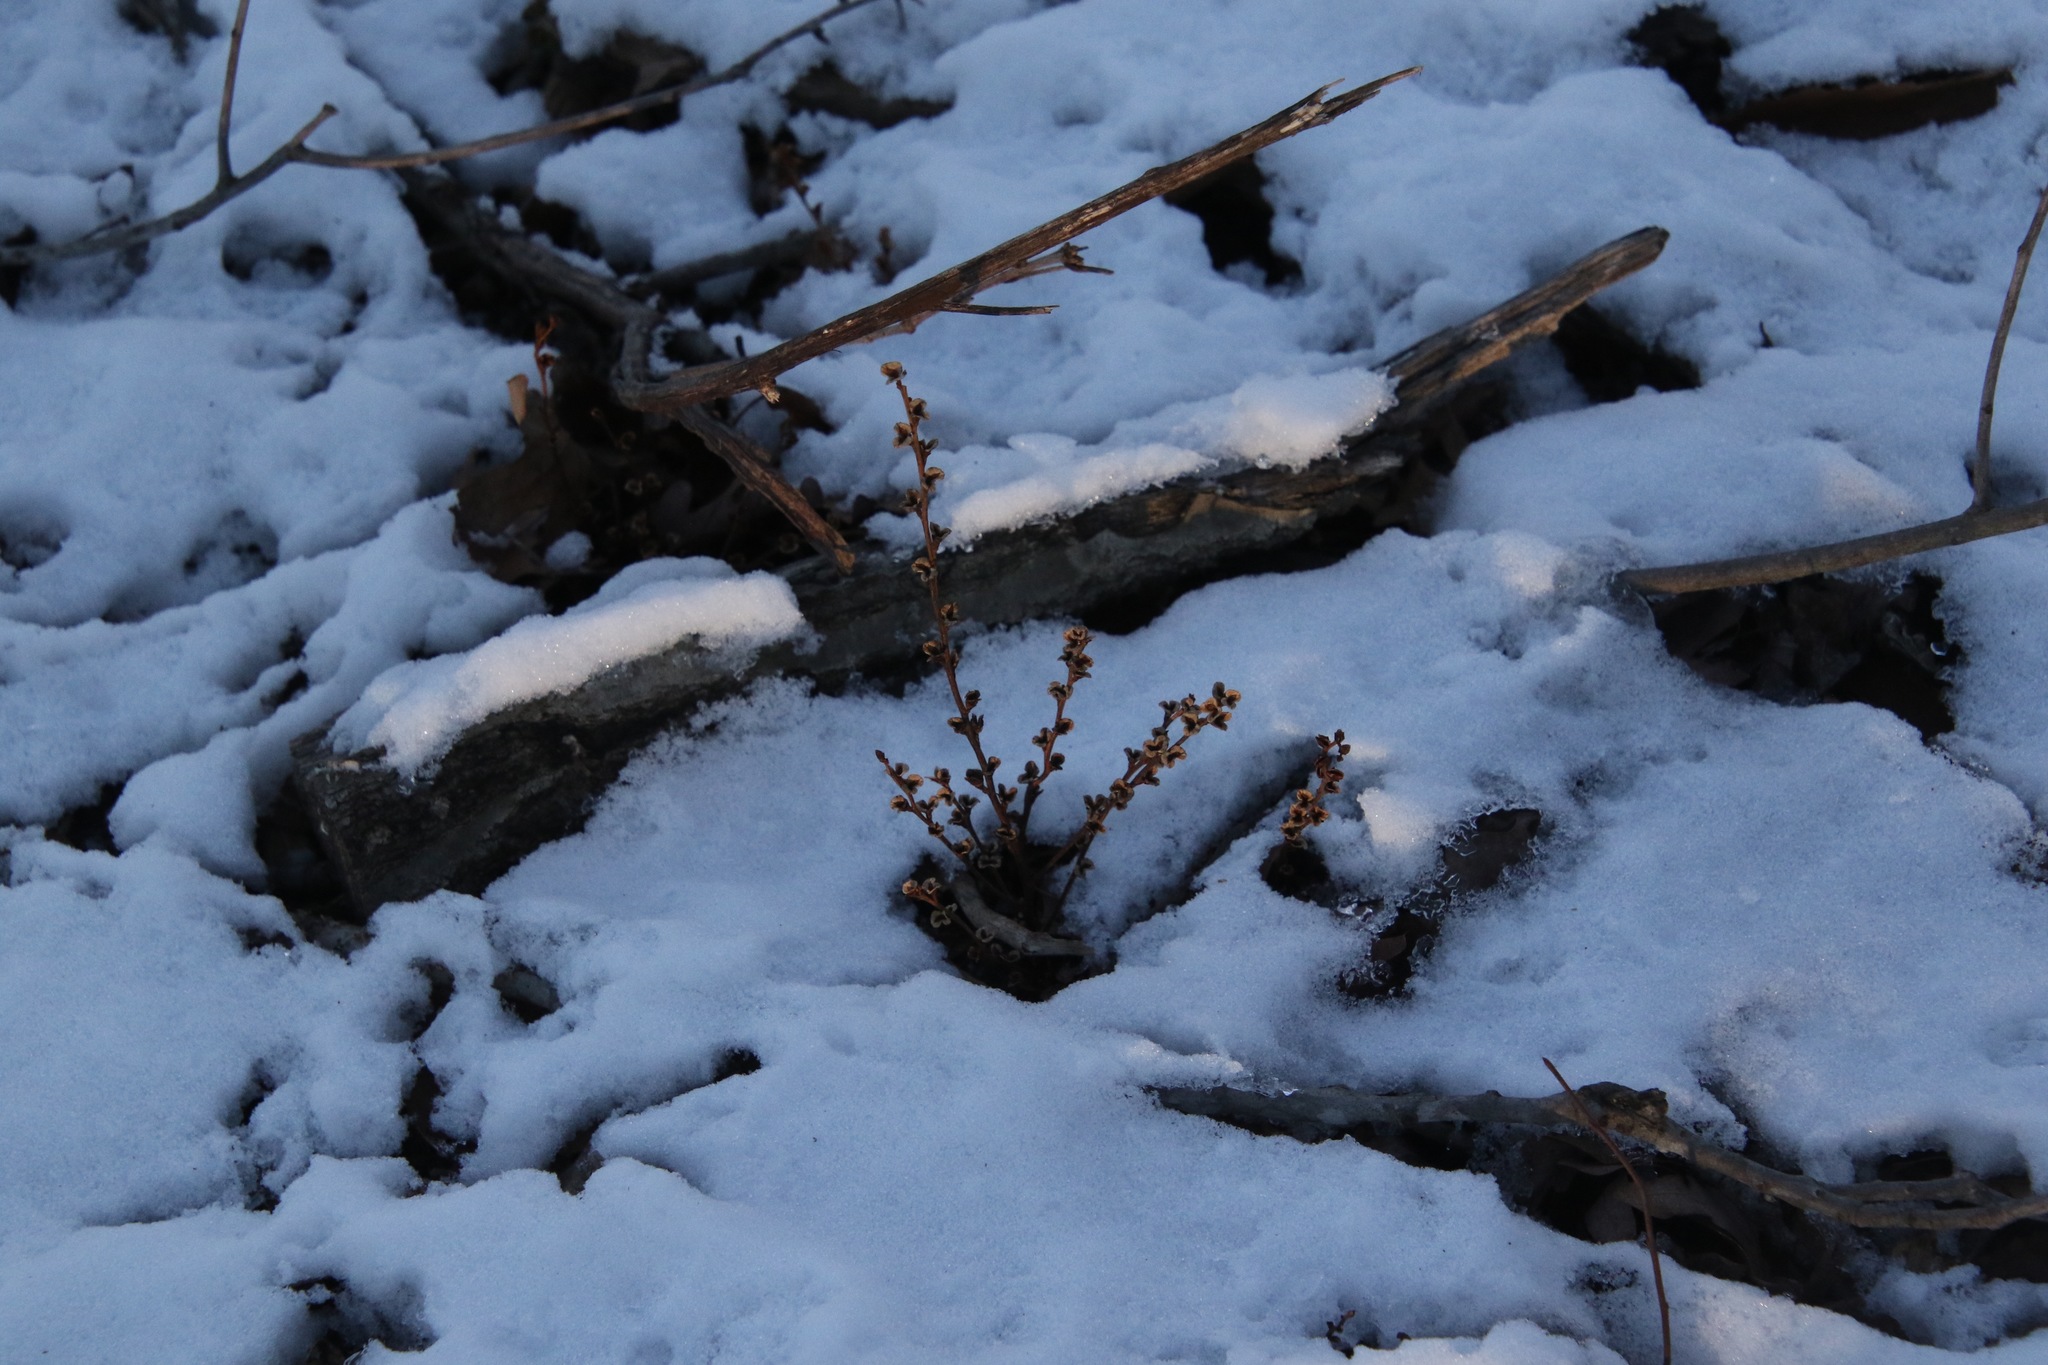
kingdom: Plantae
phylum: Tracheophyta
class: Magnoliopsida
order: Lamiales
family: Orobanchaceae
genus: Epifagus
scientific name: Epifagus virginiana
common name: Beechdrops
